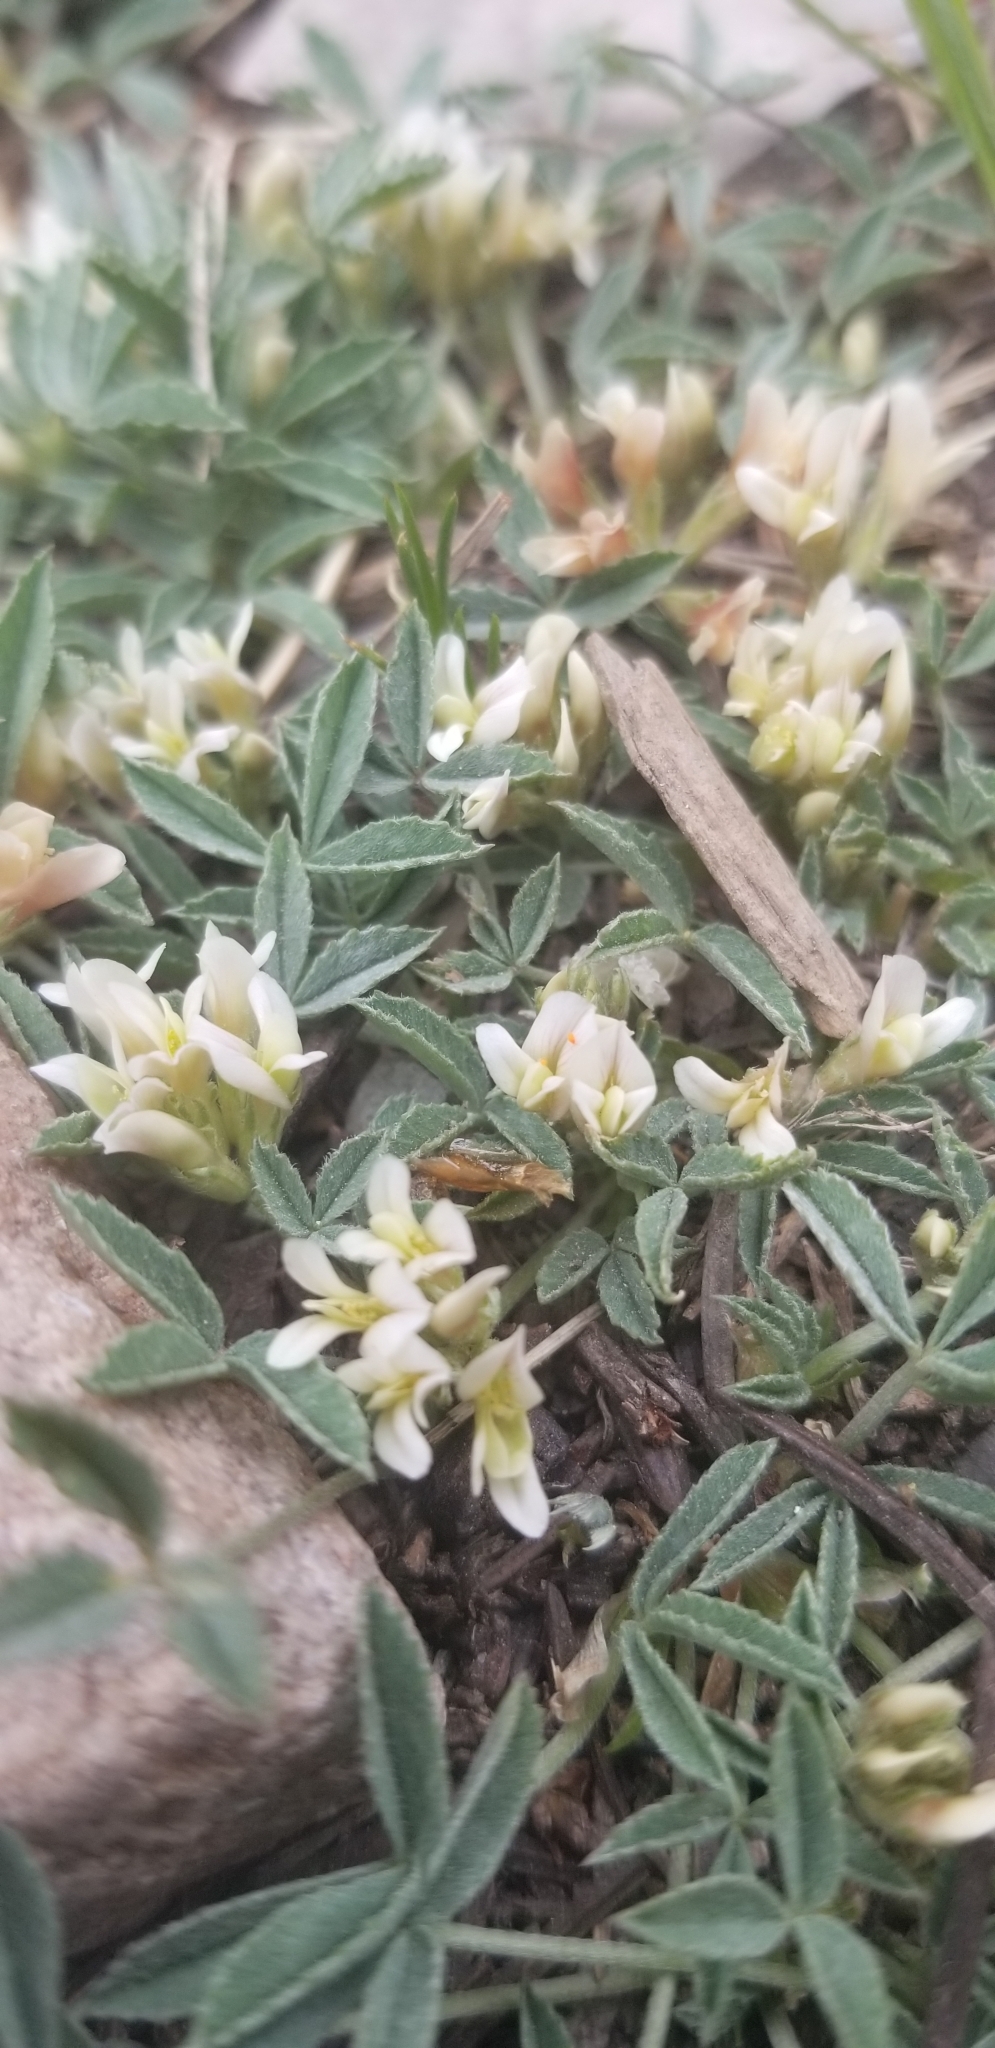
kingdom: Plantae
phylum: Tracheophyta
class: Magnoliopsida
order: Fabales
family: Fabaceae
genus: Trifolium
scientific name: Trifolium gymnocarpon
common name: Tufted clover
